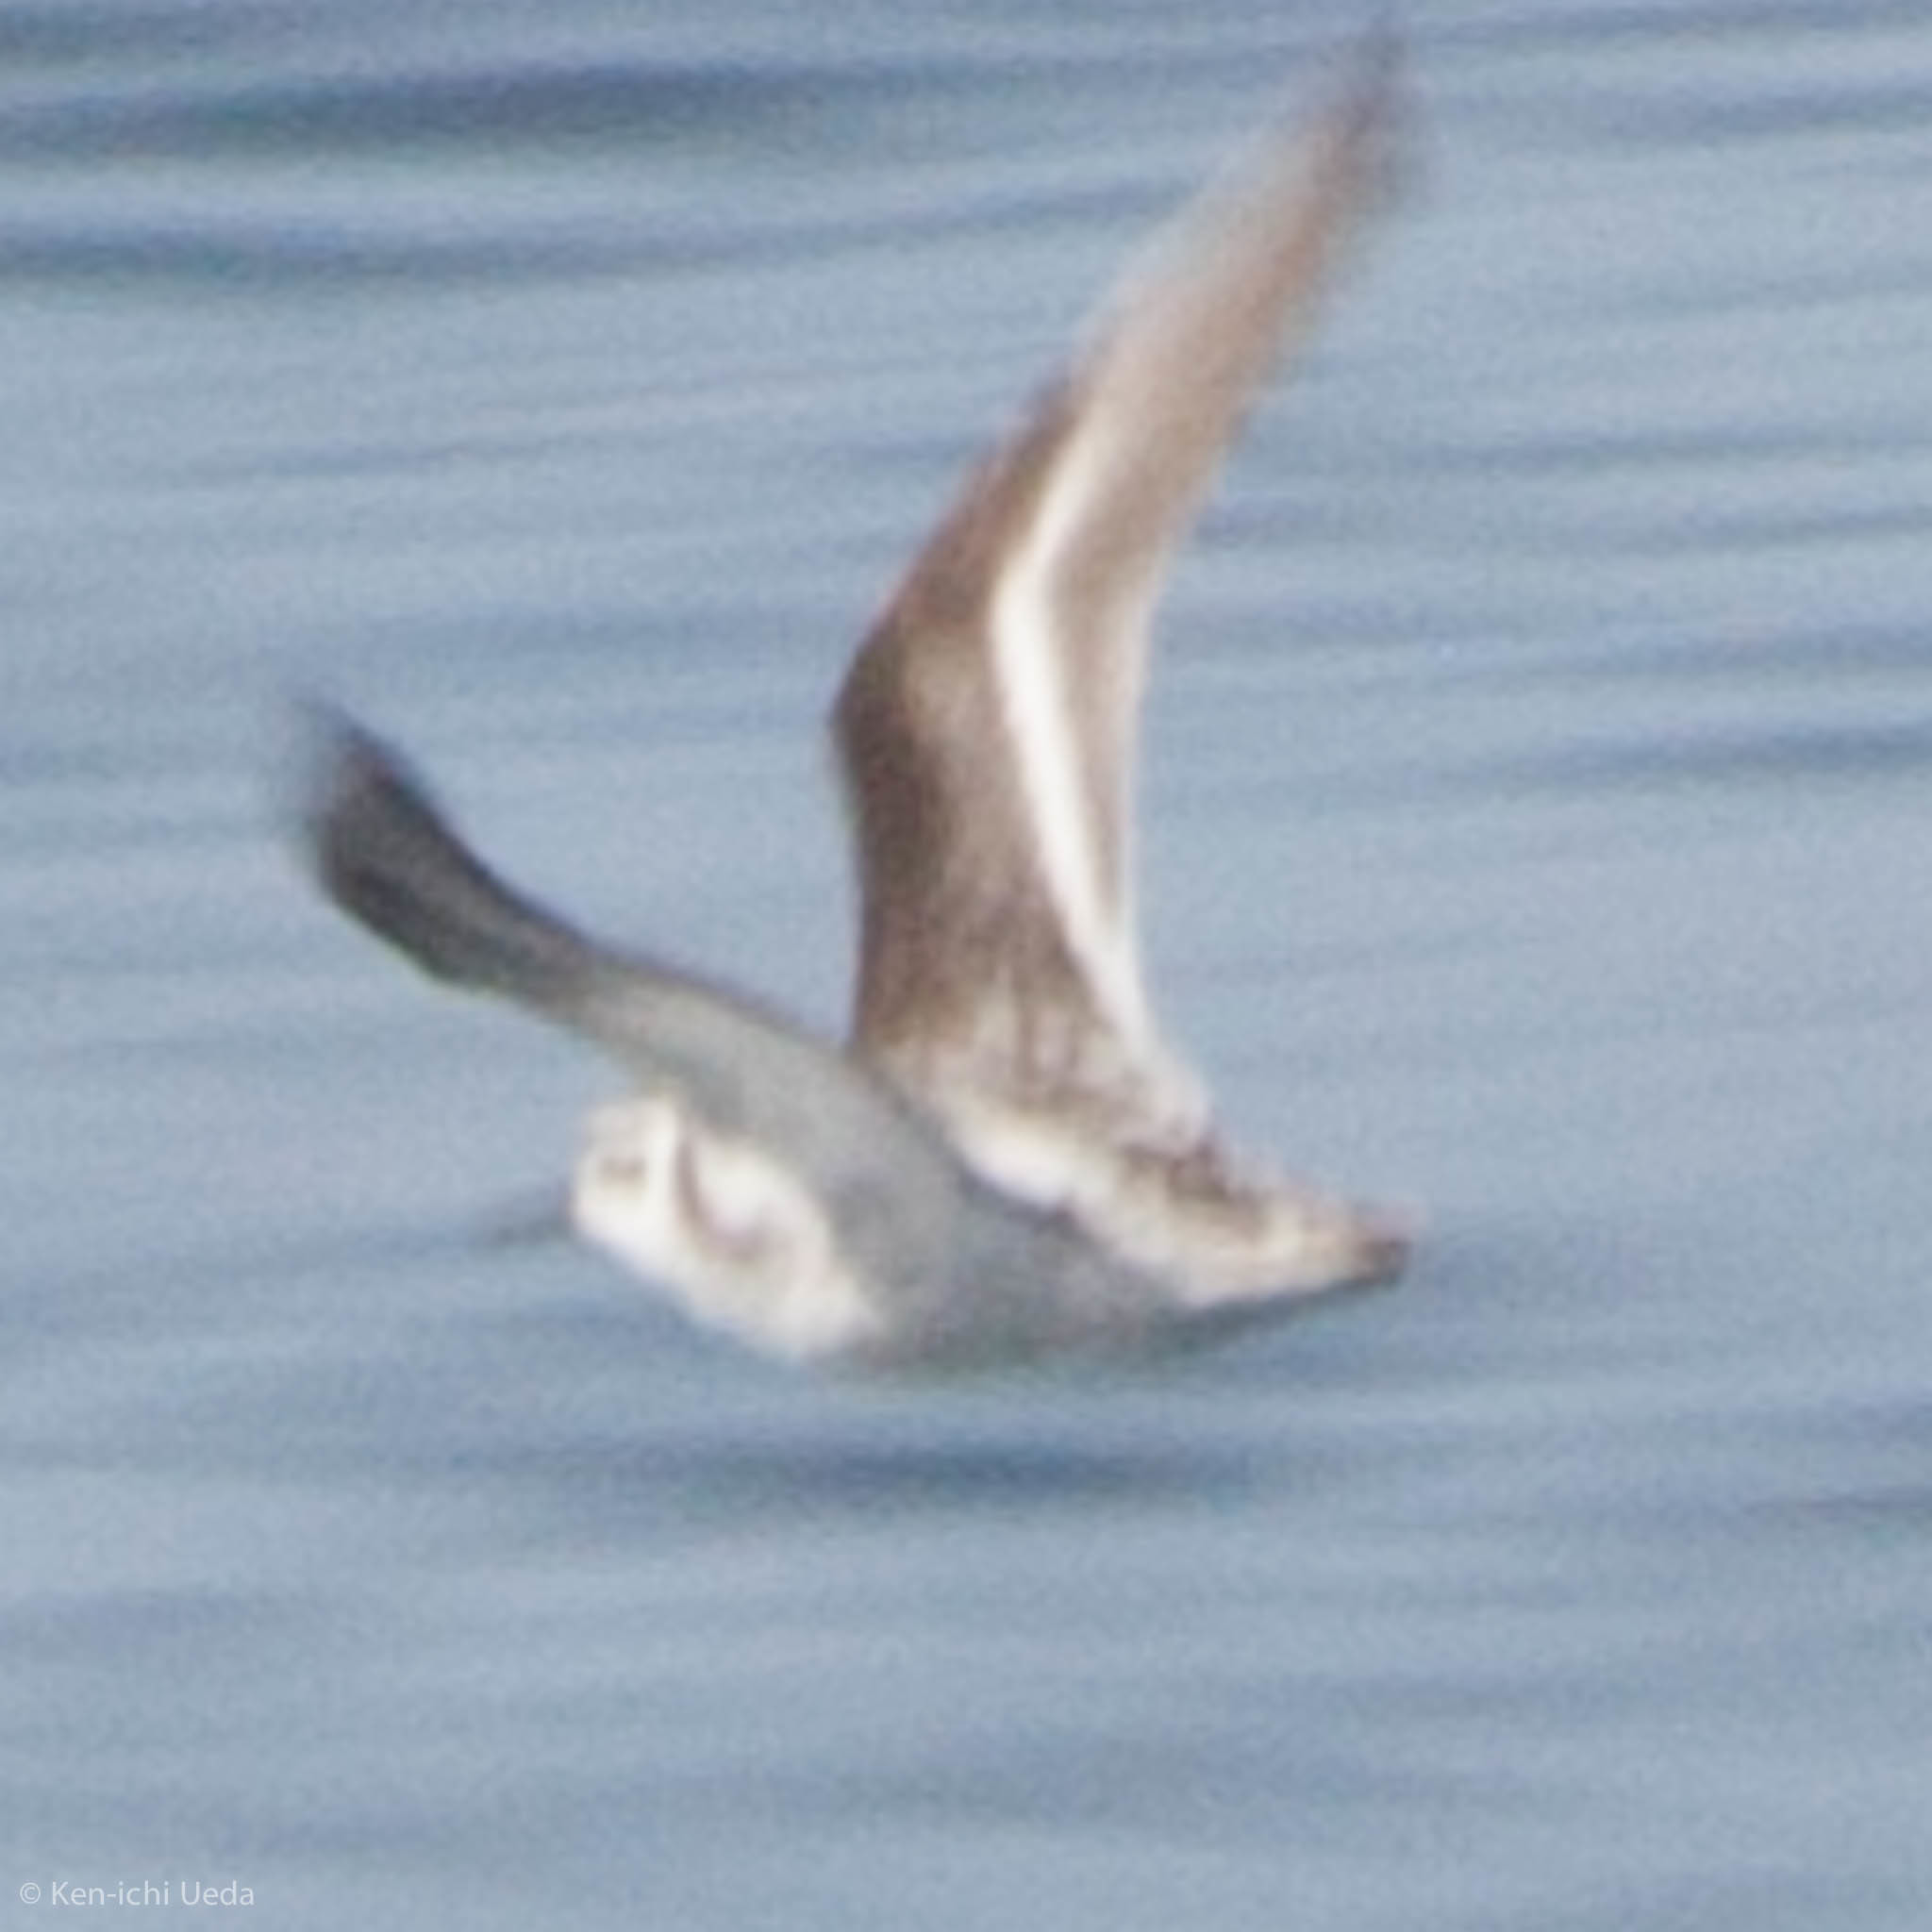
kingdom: Animalia
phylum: Chordata
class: Aves
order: Charadriiformes
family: Scolopacidae
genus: Phalaropus
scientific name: Phalaropus lobatus
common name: Red-necked phalarope
